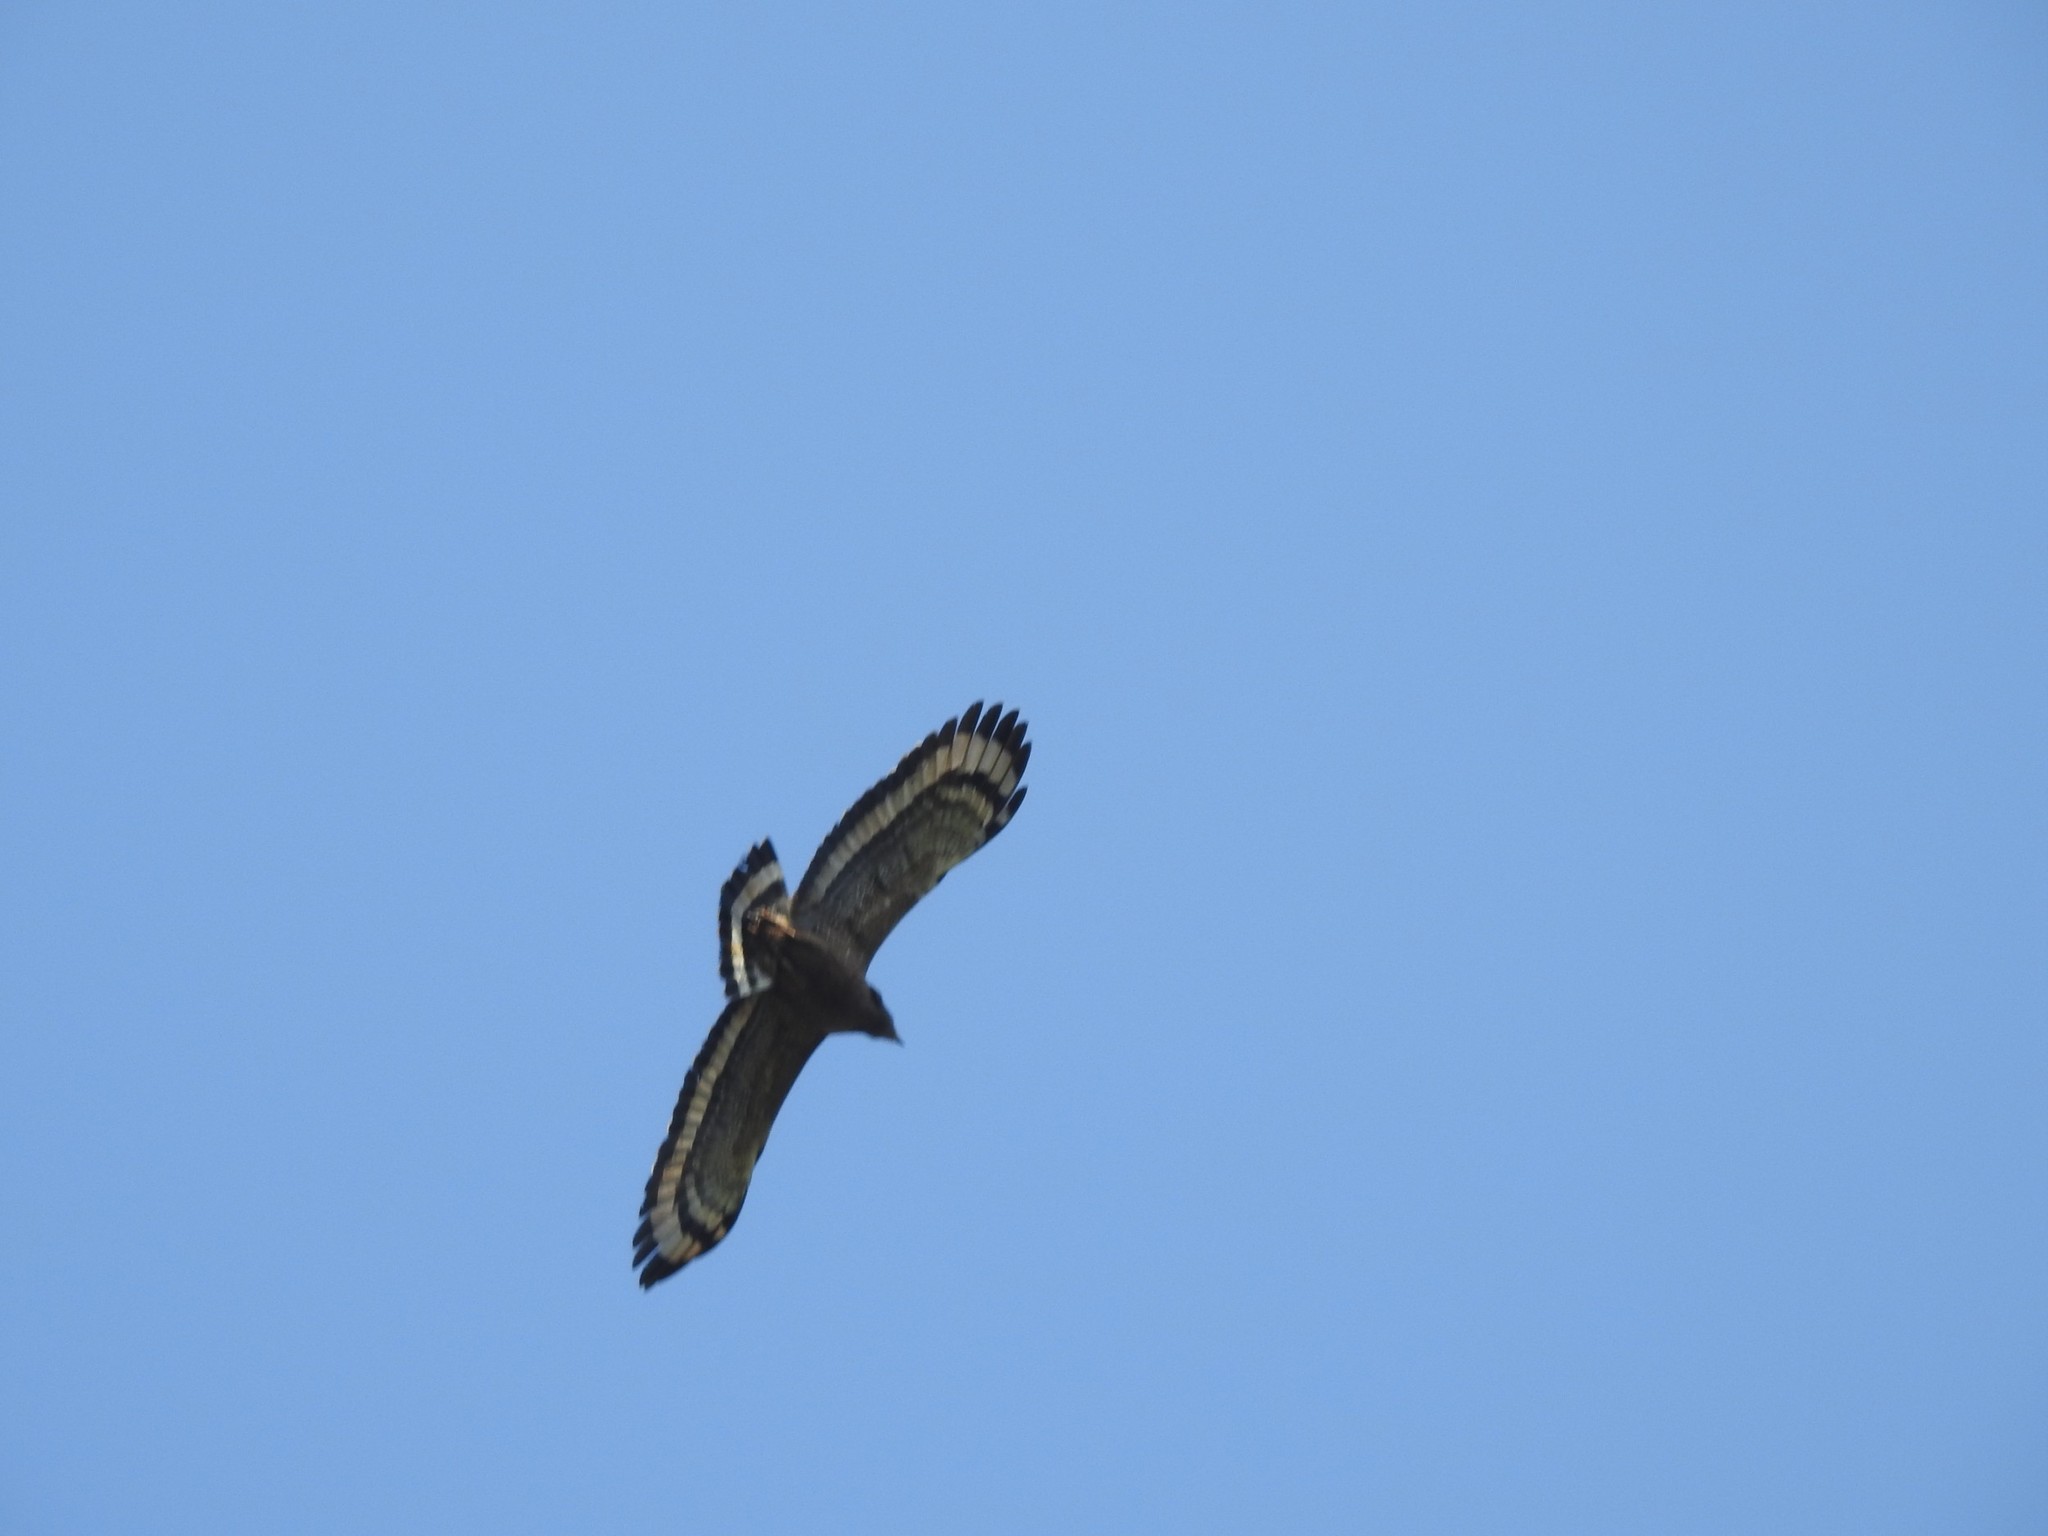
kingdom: Animalia
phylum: Chordata
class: Aves
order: Accipitriformes
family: Accipitridae
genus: Spilornis
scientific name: Spilornis cheela
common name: Crested serpent eagle
